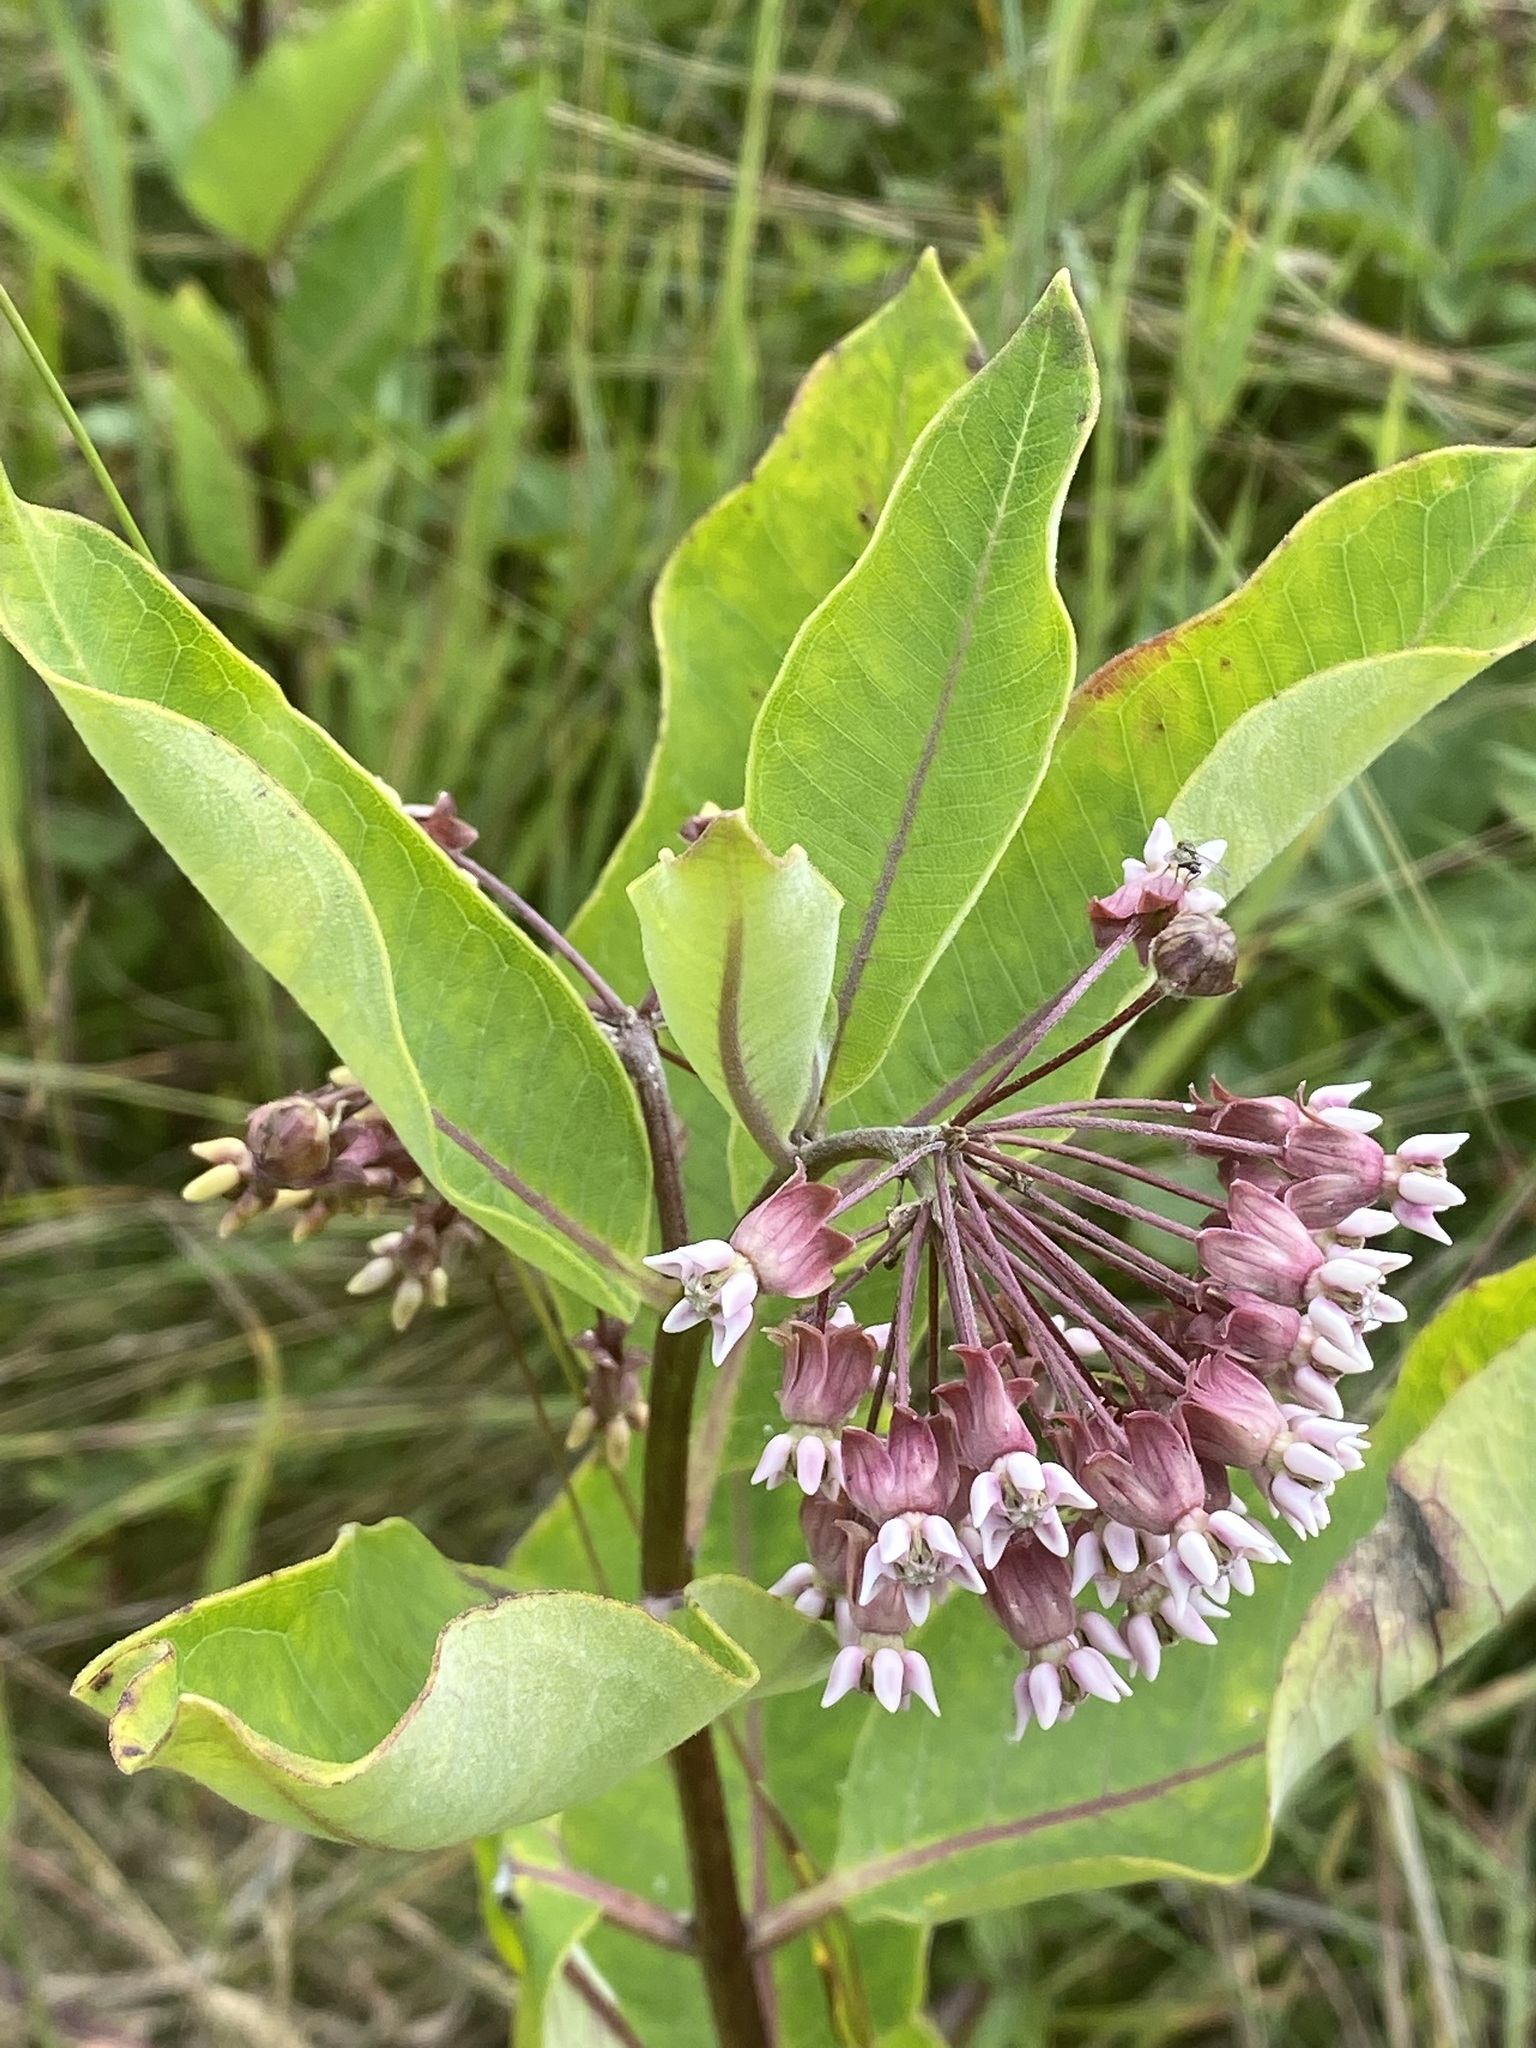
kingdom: Plantae
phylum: Tracheophyta
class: Magnoliopsida
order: Gentianales
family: Apocynaceae
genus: Asclepias
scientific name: Asclepias syriaca
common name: Common milkweed
